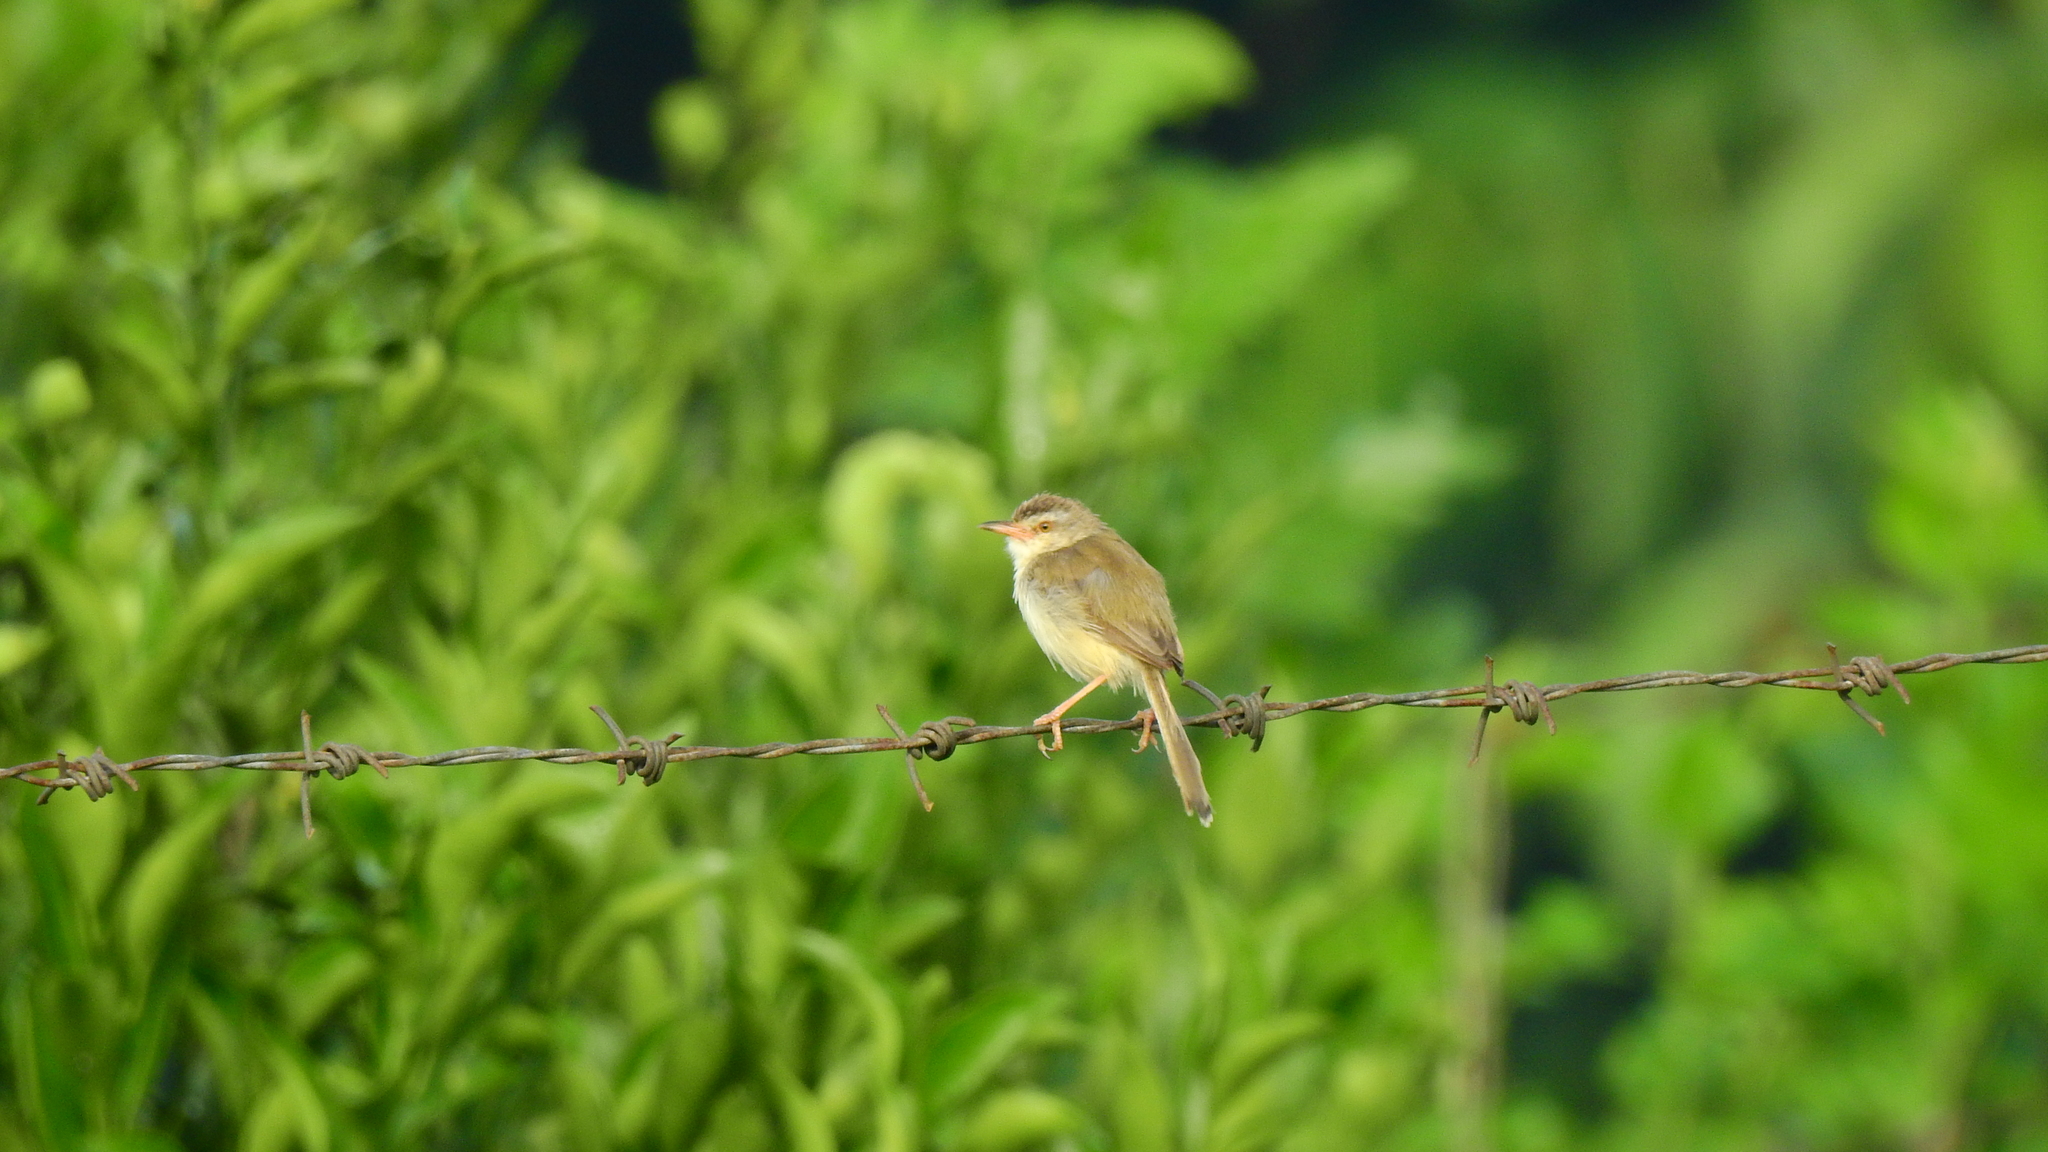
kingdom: Animalia
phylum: Chordata
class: Aves
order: Passeriformes
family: Cisticolidae
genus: Prinia
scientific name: Prinia inornata
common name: Plain prinia
